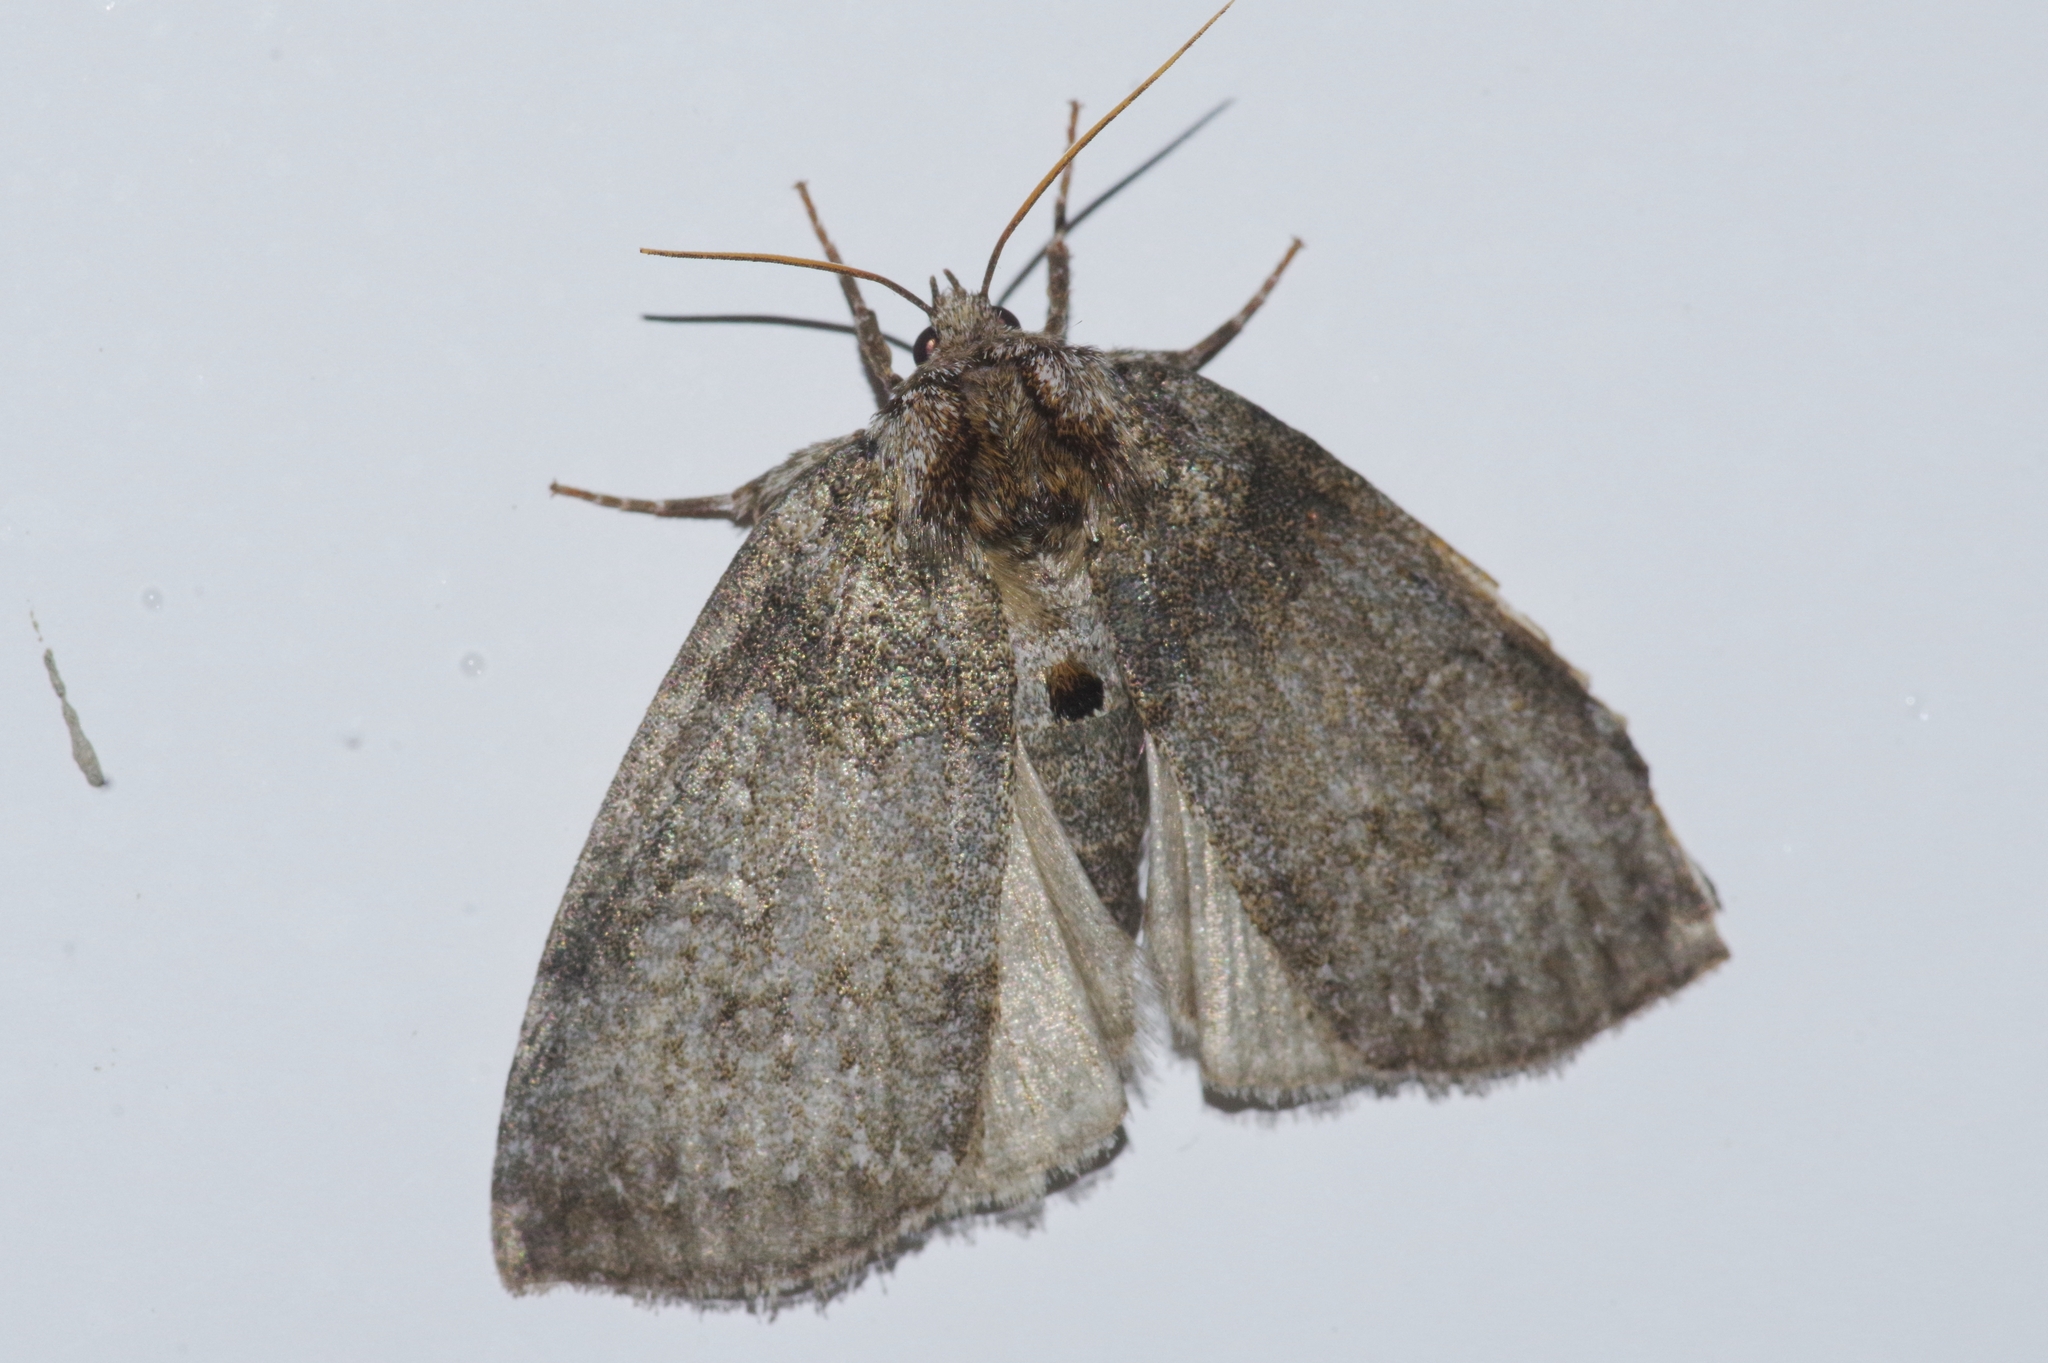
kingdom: Animalia
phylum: Arthropoda
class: Insecta
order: Lepidoptera
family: Drepanidae
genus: Parapsestis
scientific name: Parapsestis argenteopicta
